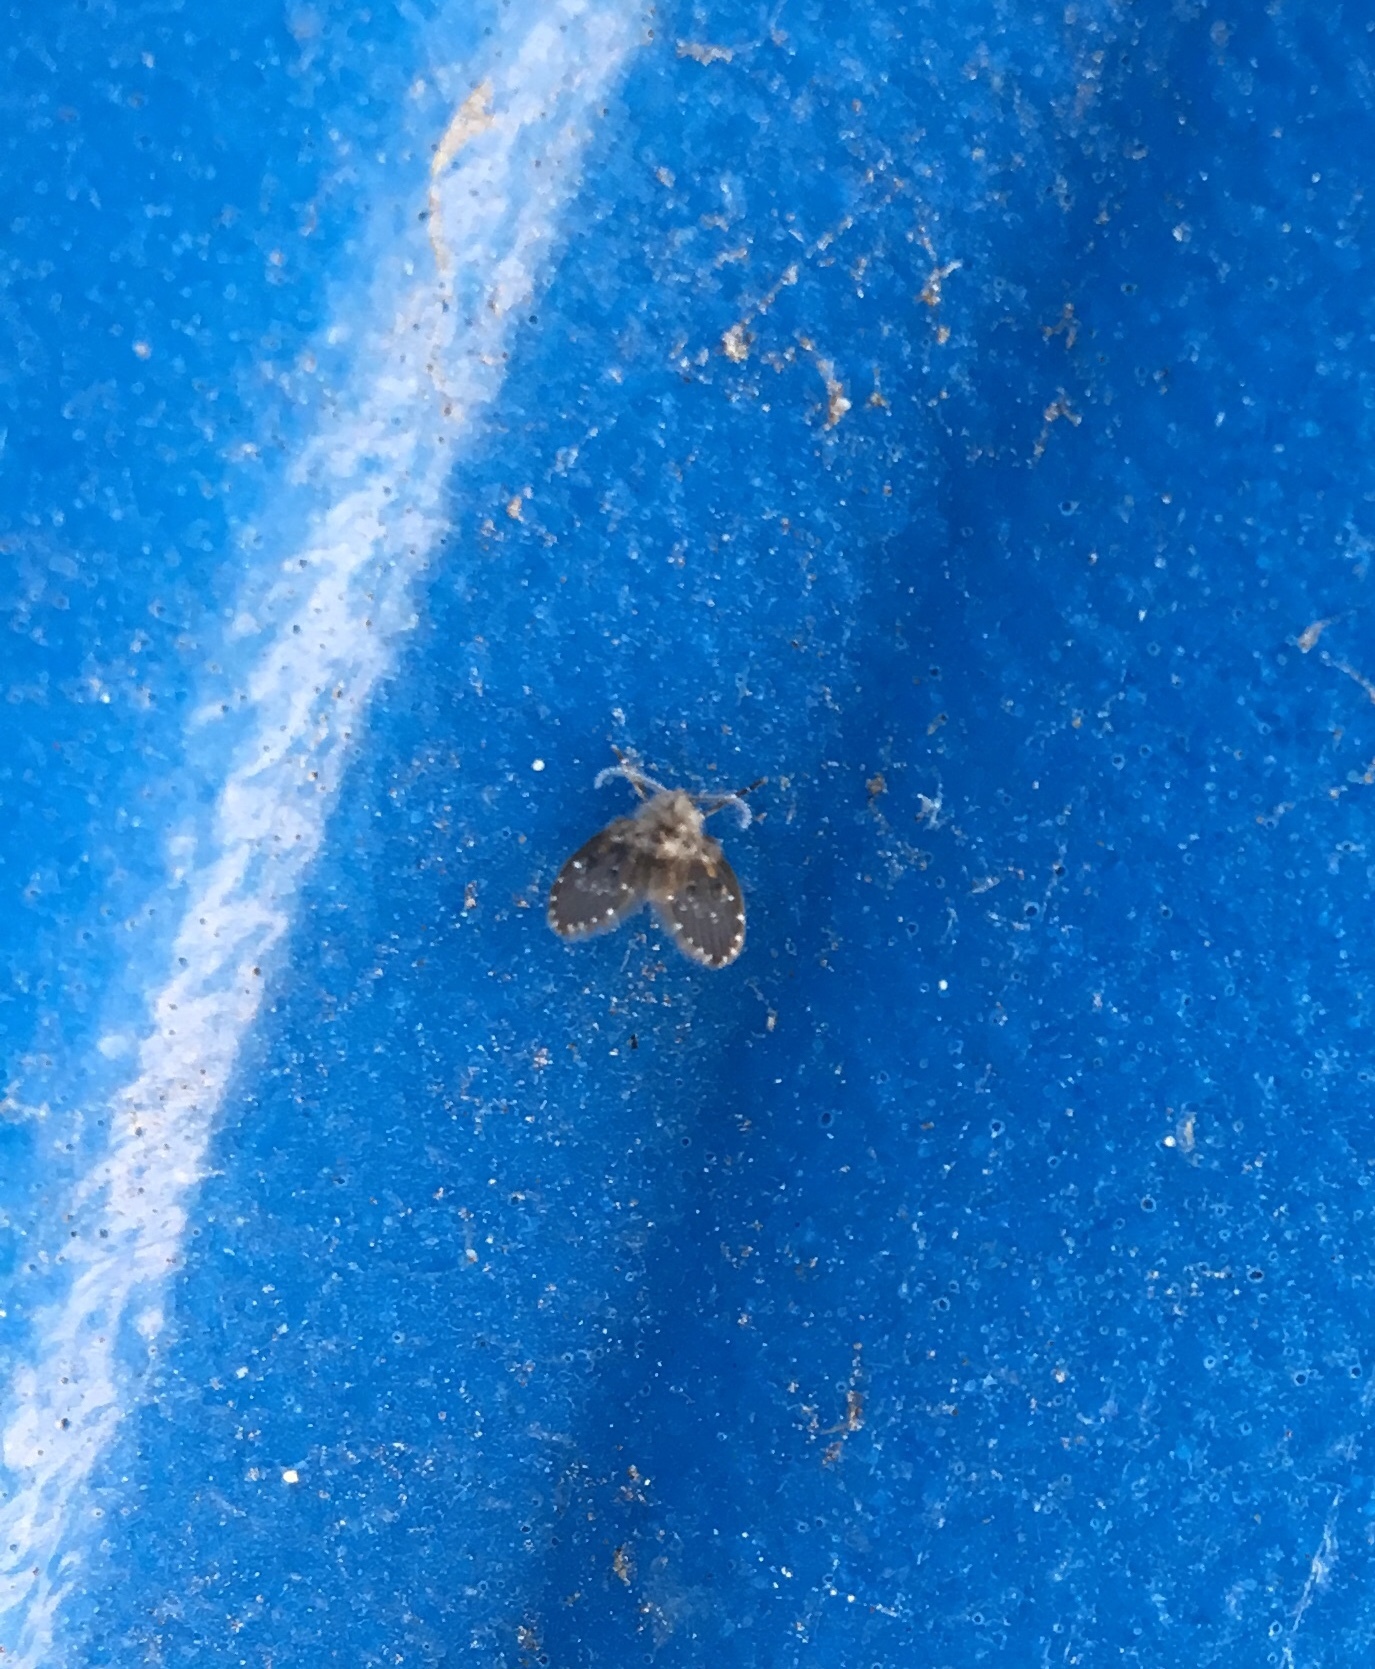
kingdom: Animalia
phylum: Arthropoda
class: Insecta
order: Diptera
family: Psychodidae
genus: Clogmia
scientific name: Clogmia albipunctatus
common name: White-spotted moth fly
